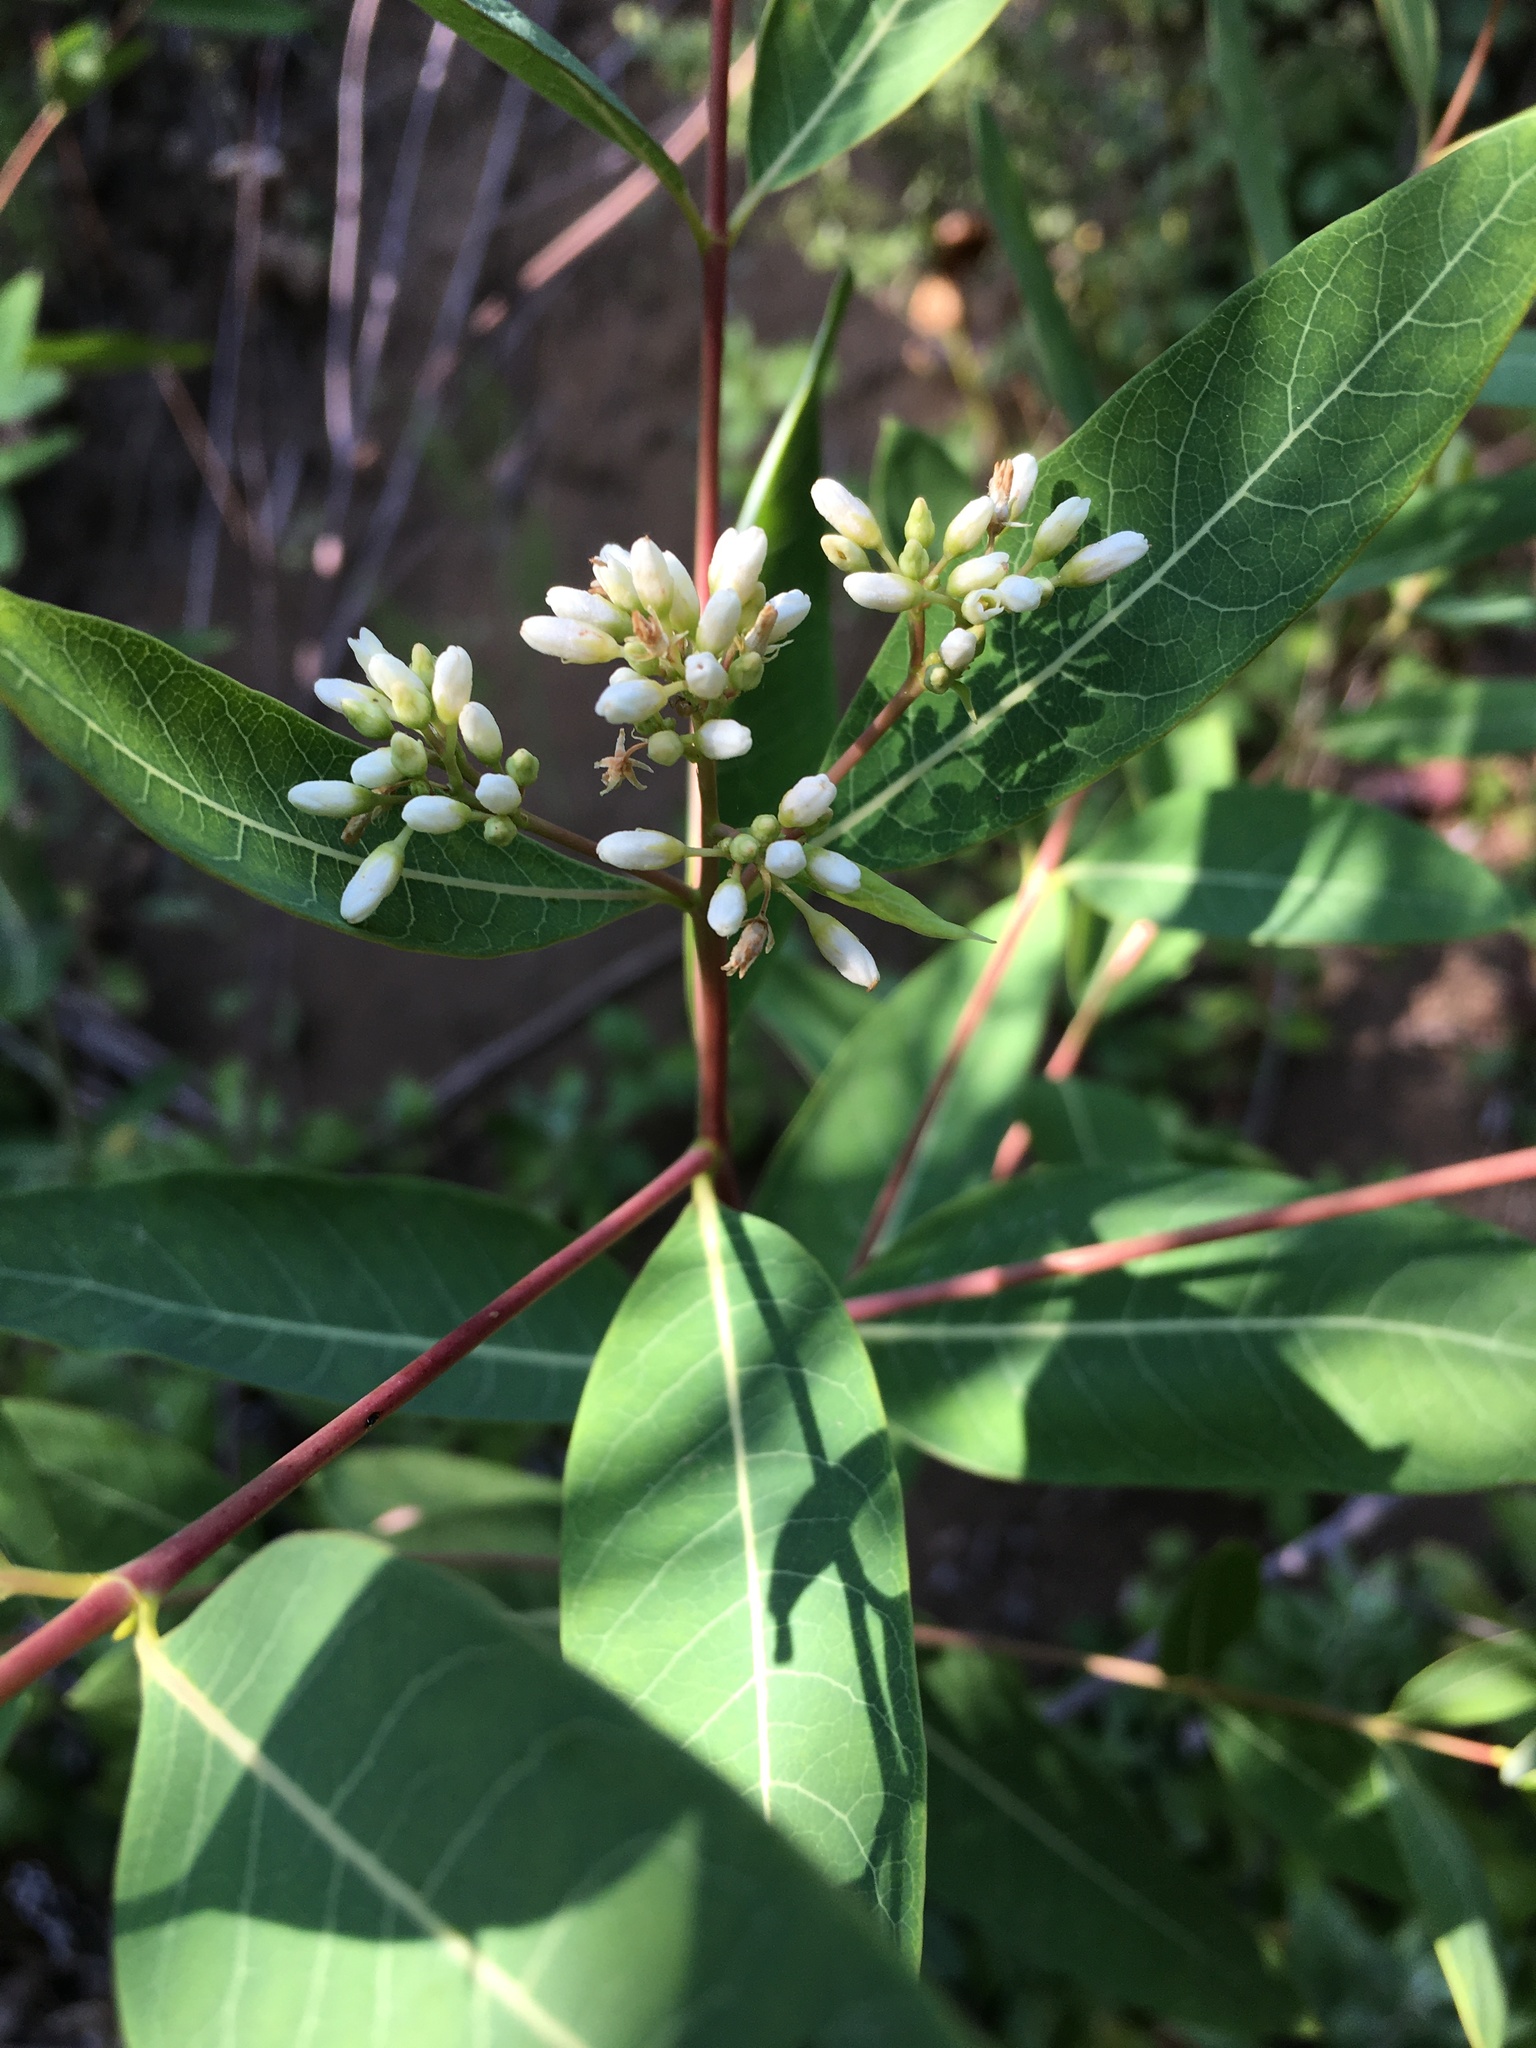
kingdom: Plantae
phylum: Tracheophyta
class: Magnoliopsida
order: Gentianales
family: Apocynaceae
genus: Apocynum
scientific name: Apocynum cannabinum
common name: Hemp dogbane
